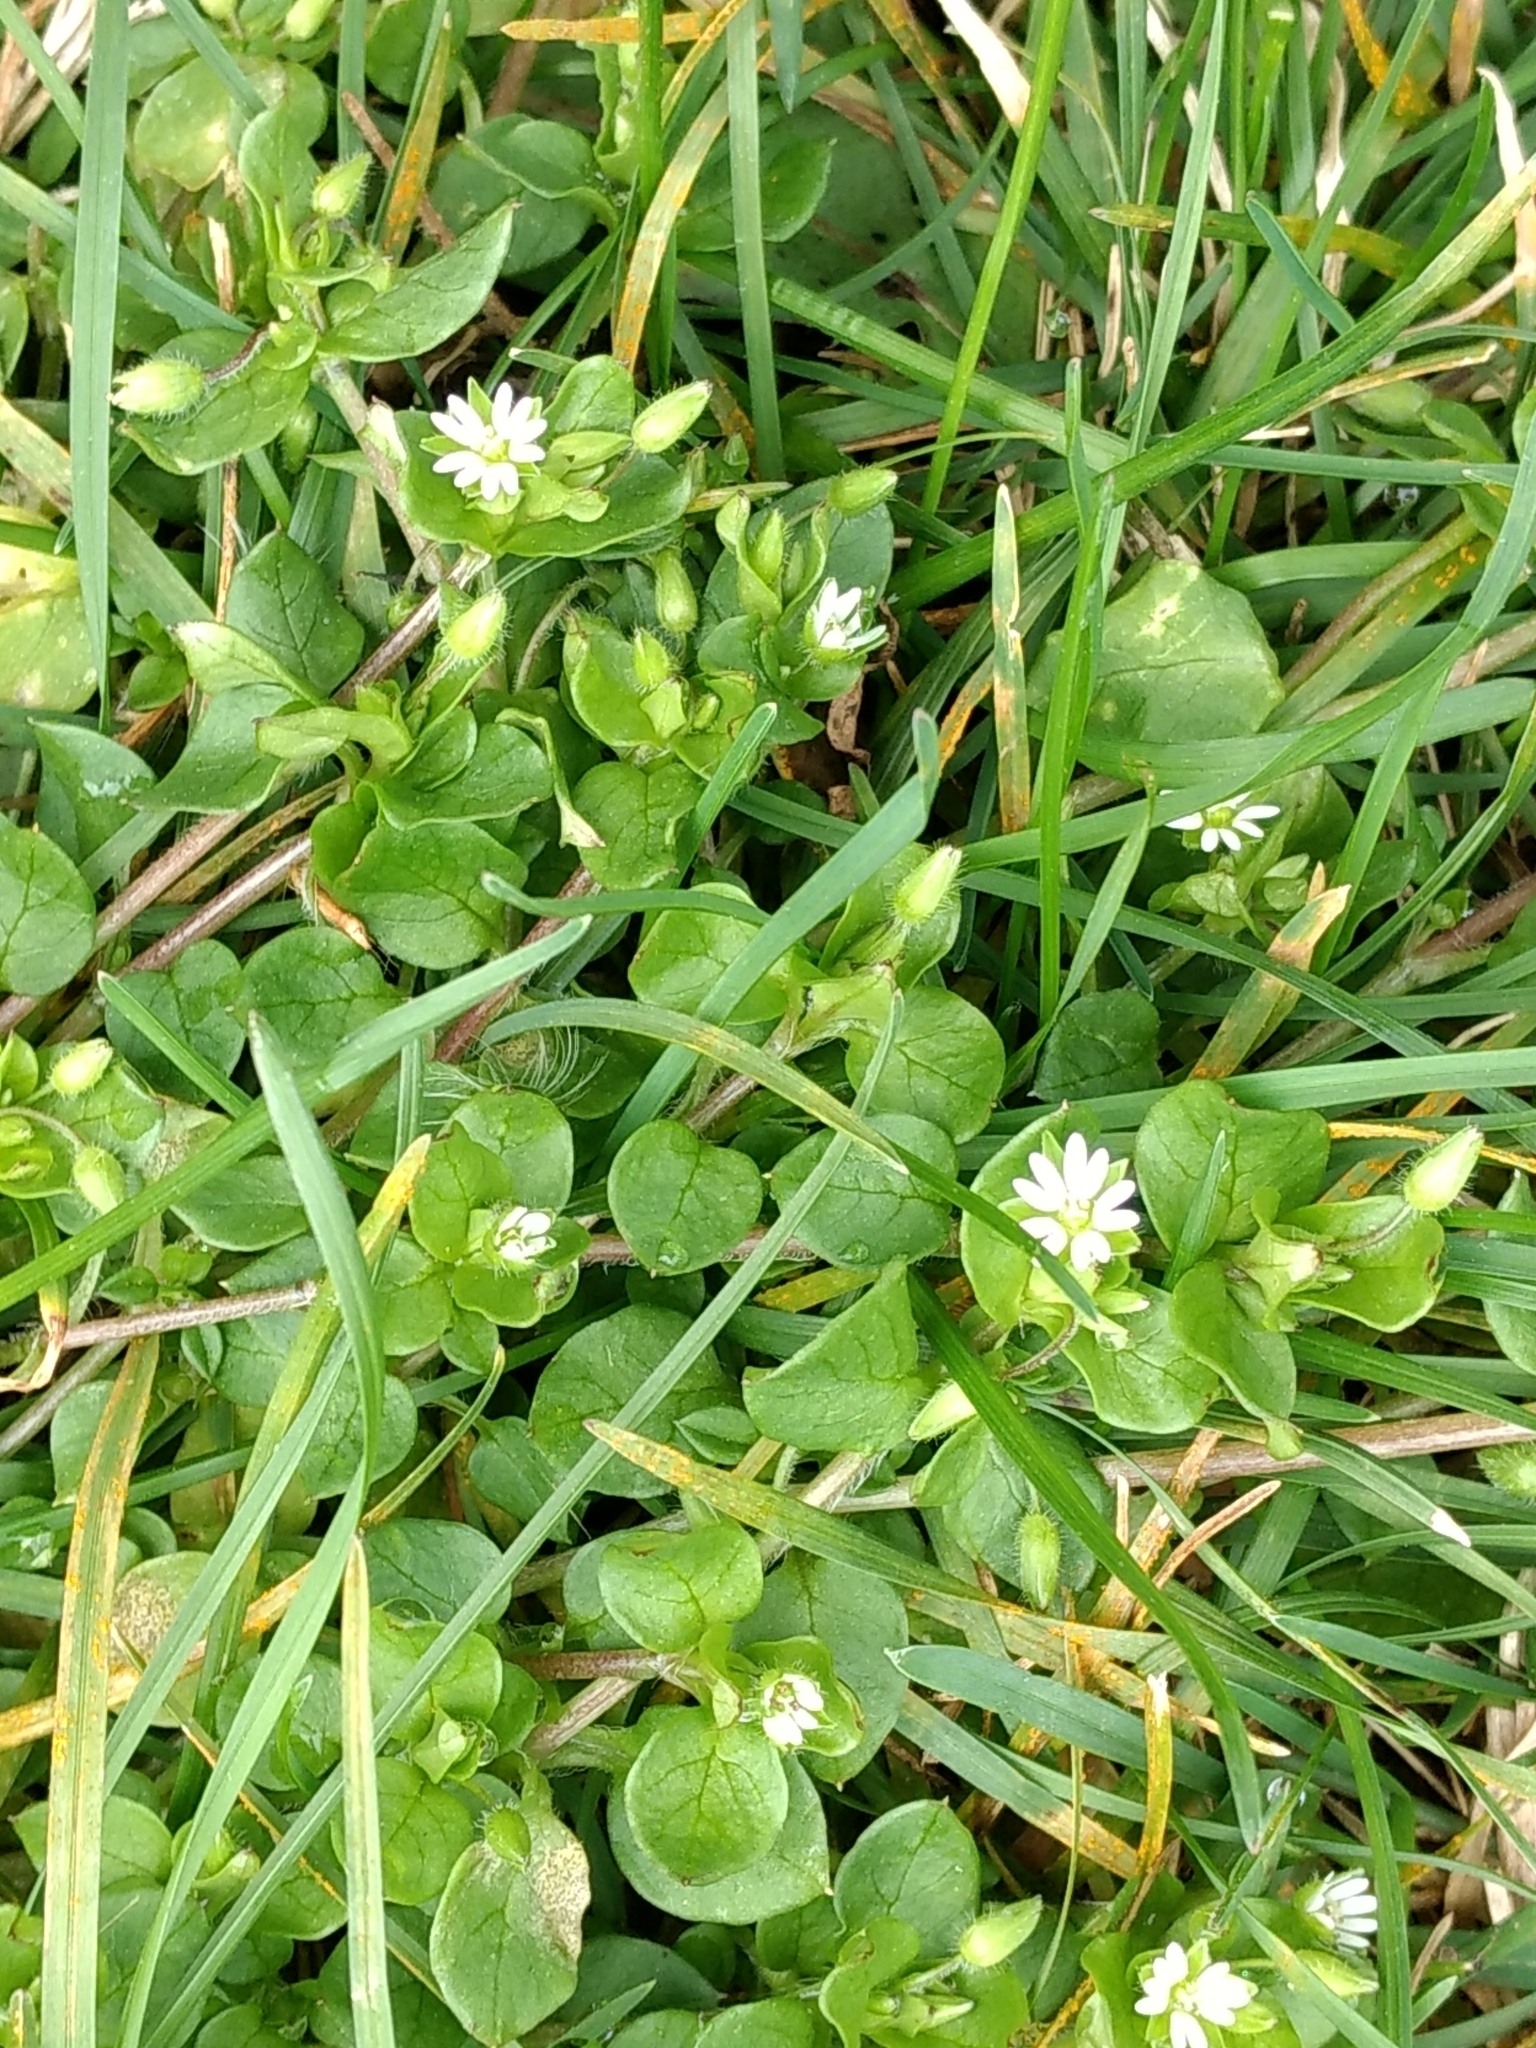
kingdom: Plantae
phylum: Tracheophyta
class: Magnoliopsida
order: Caryophyllales
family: Caryophyllaceae
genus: Stellaria
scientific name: Stellaria media
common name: Common chickweed
